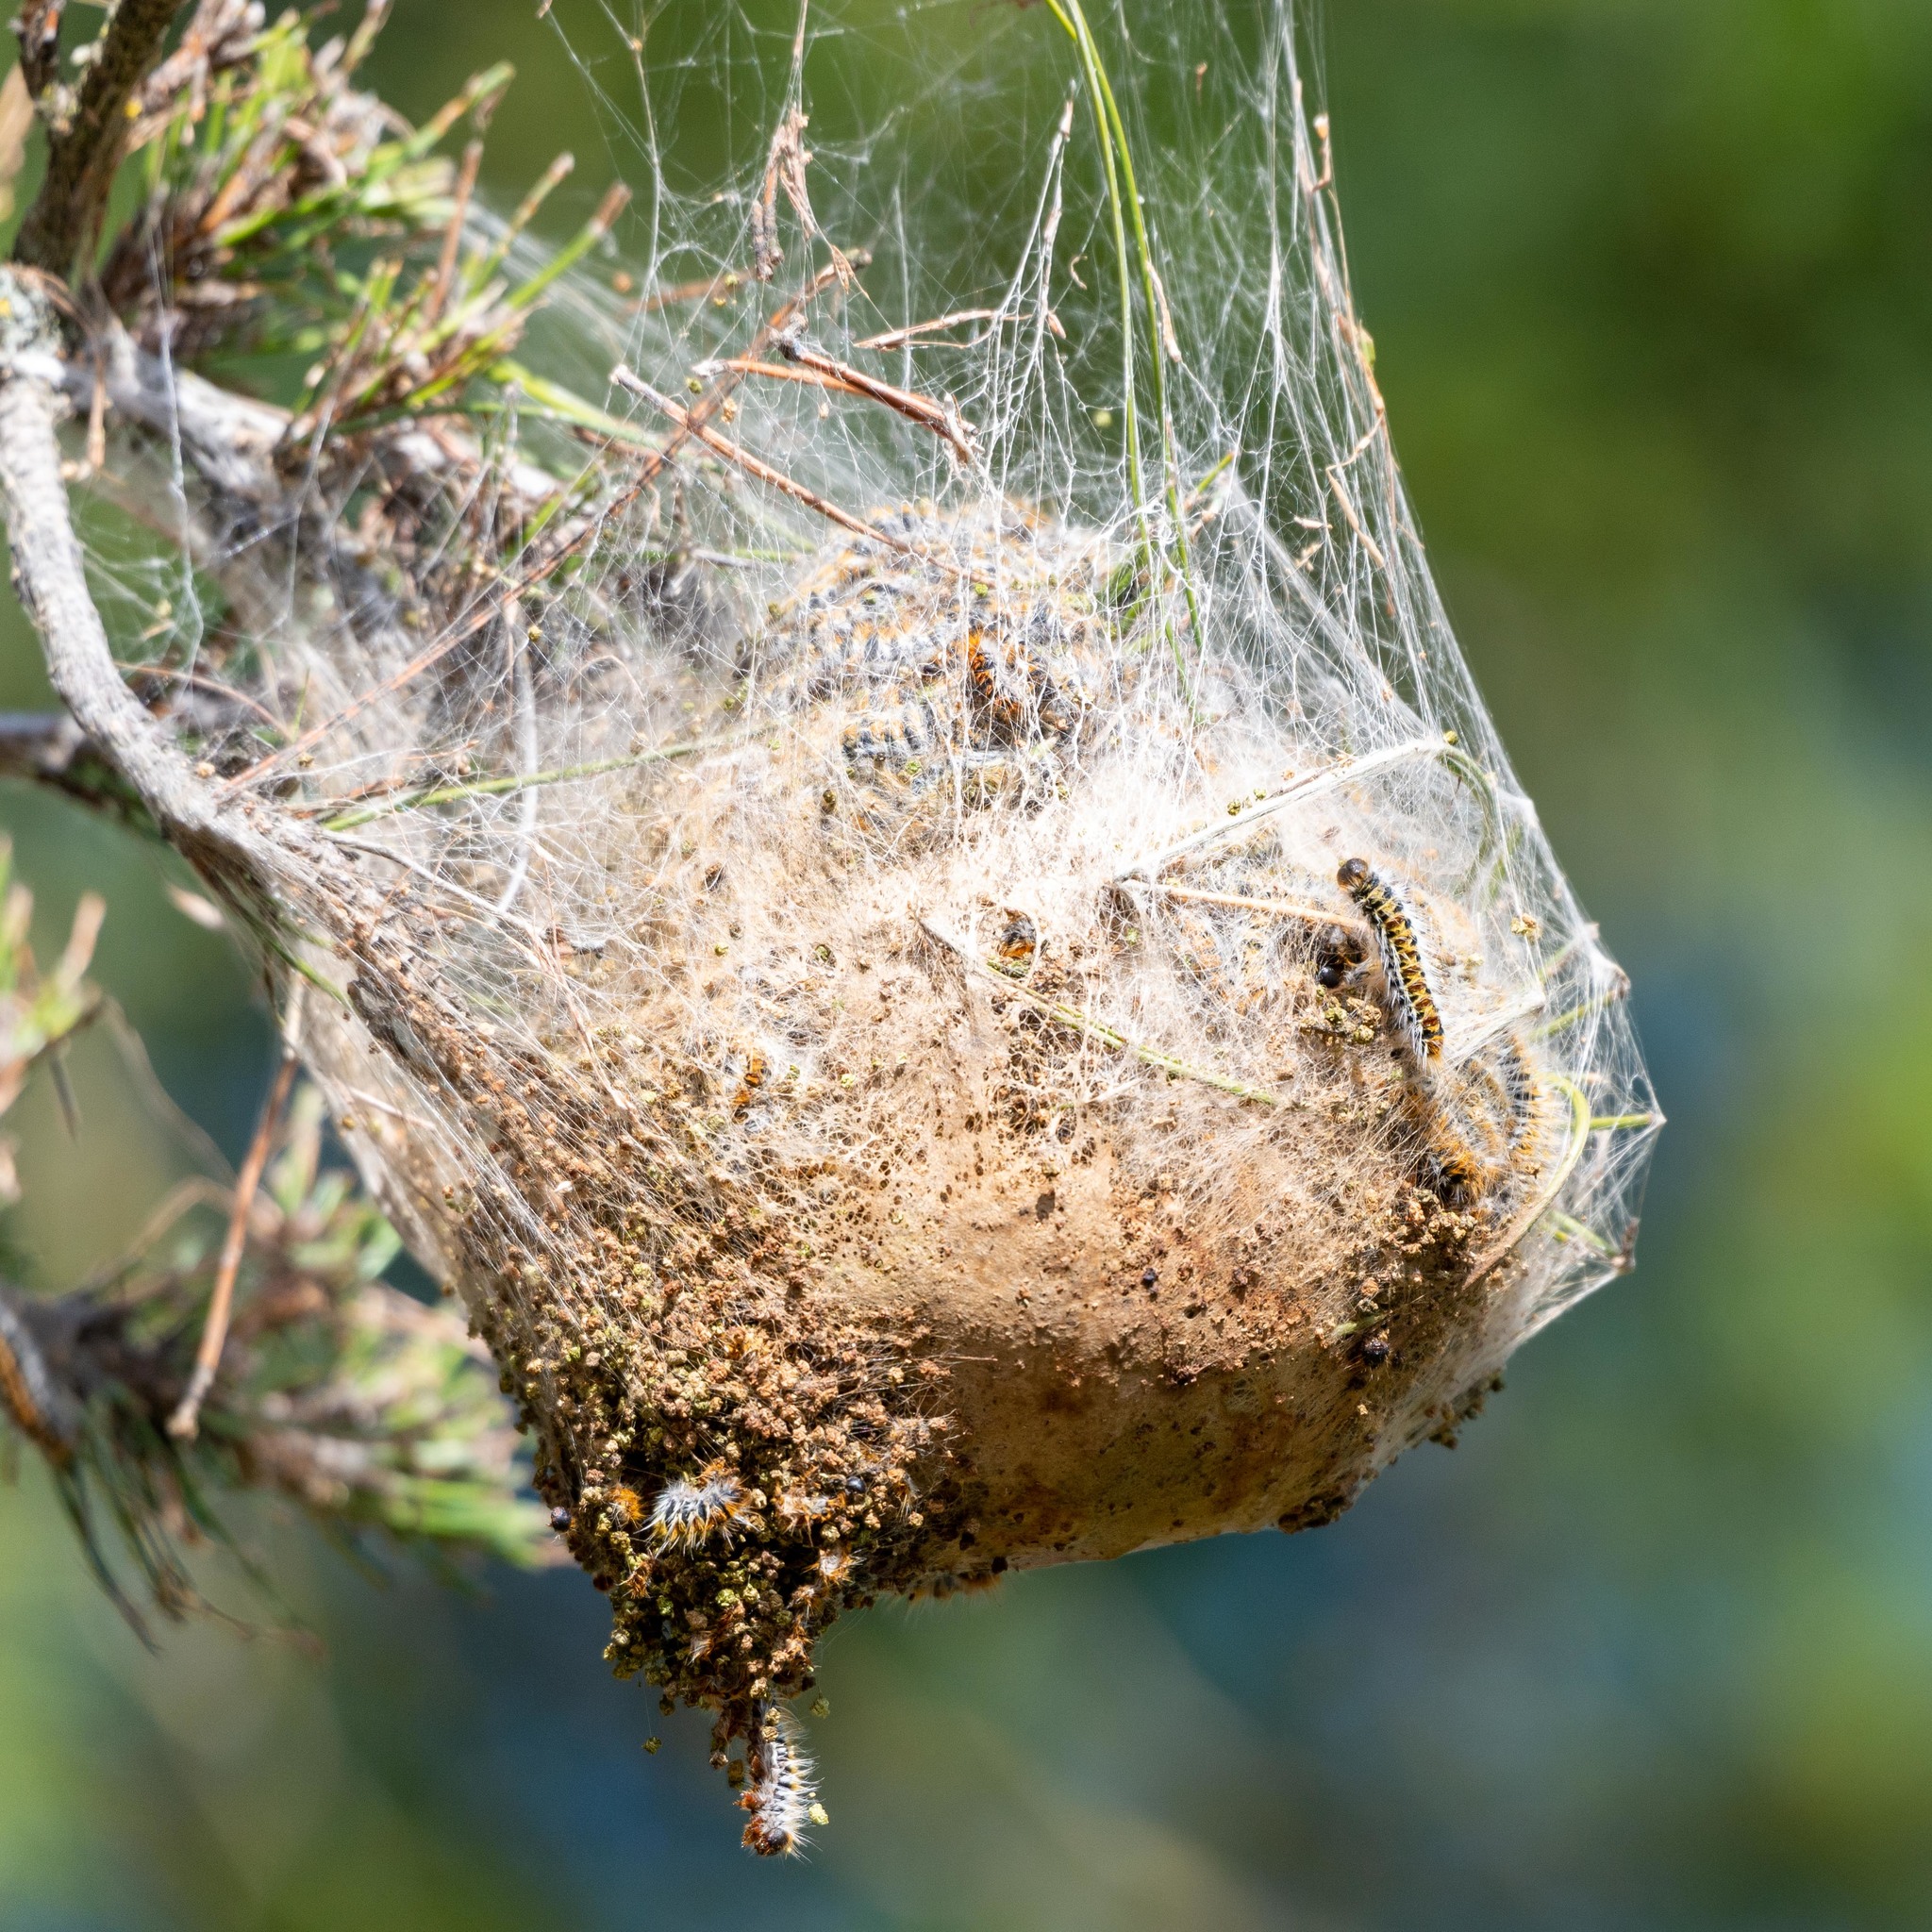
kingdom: Animalia
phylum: Arthropoda
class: Insecta
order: Lepidoptera
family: Notodontidae
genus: Thaumetopoea
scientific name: Thaumetopoea pityocampa
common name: Pine processionary
